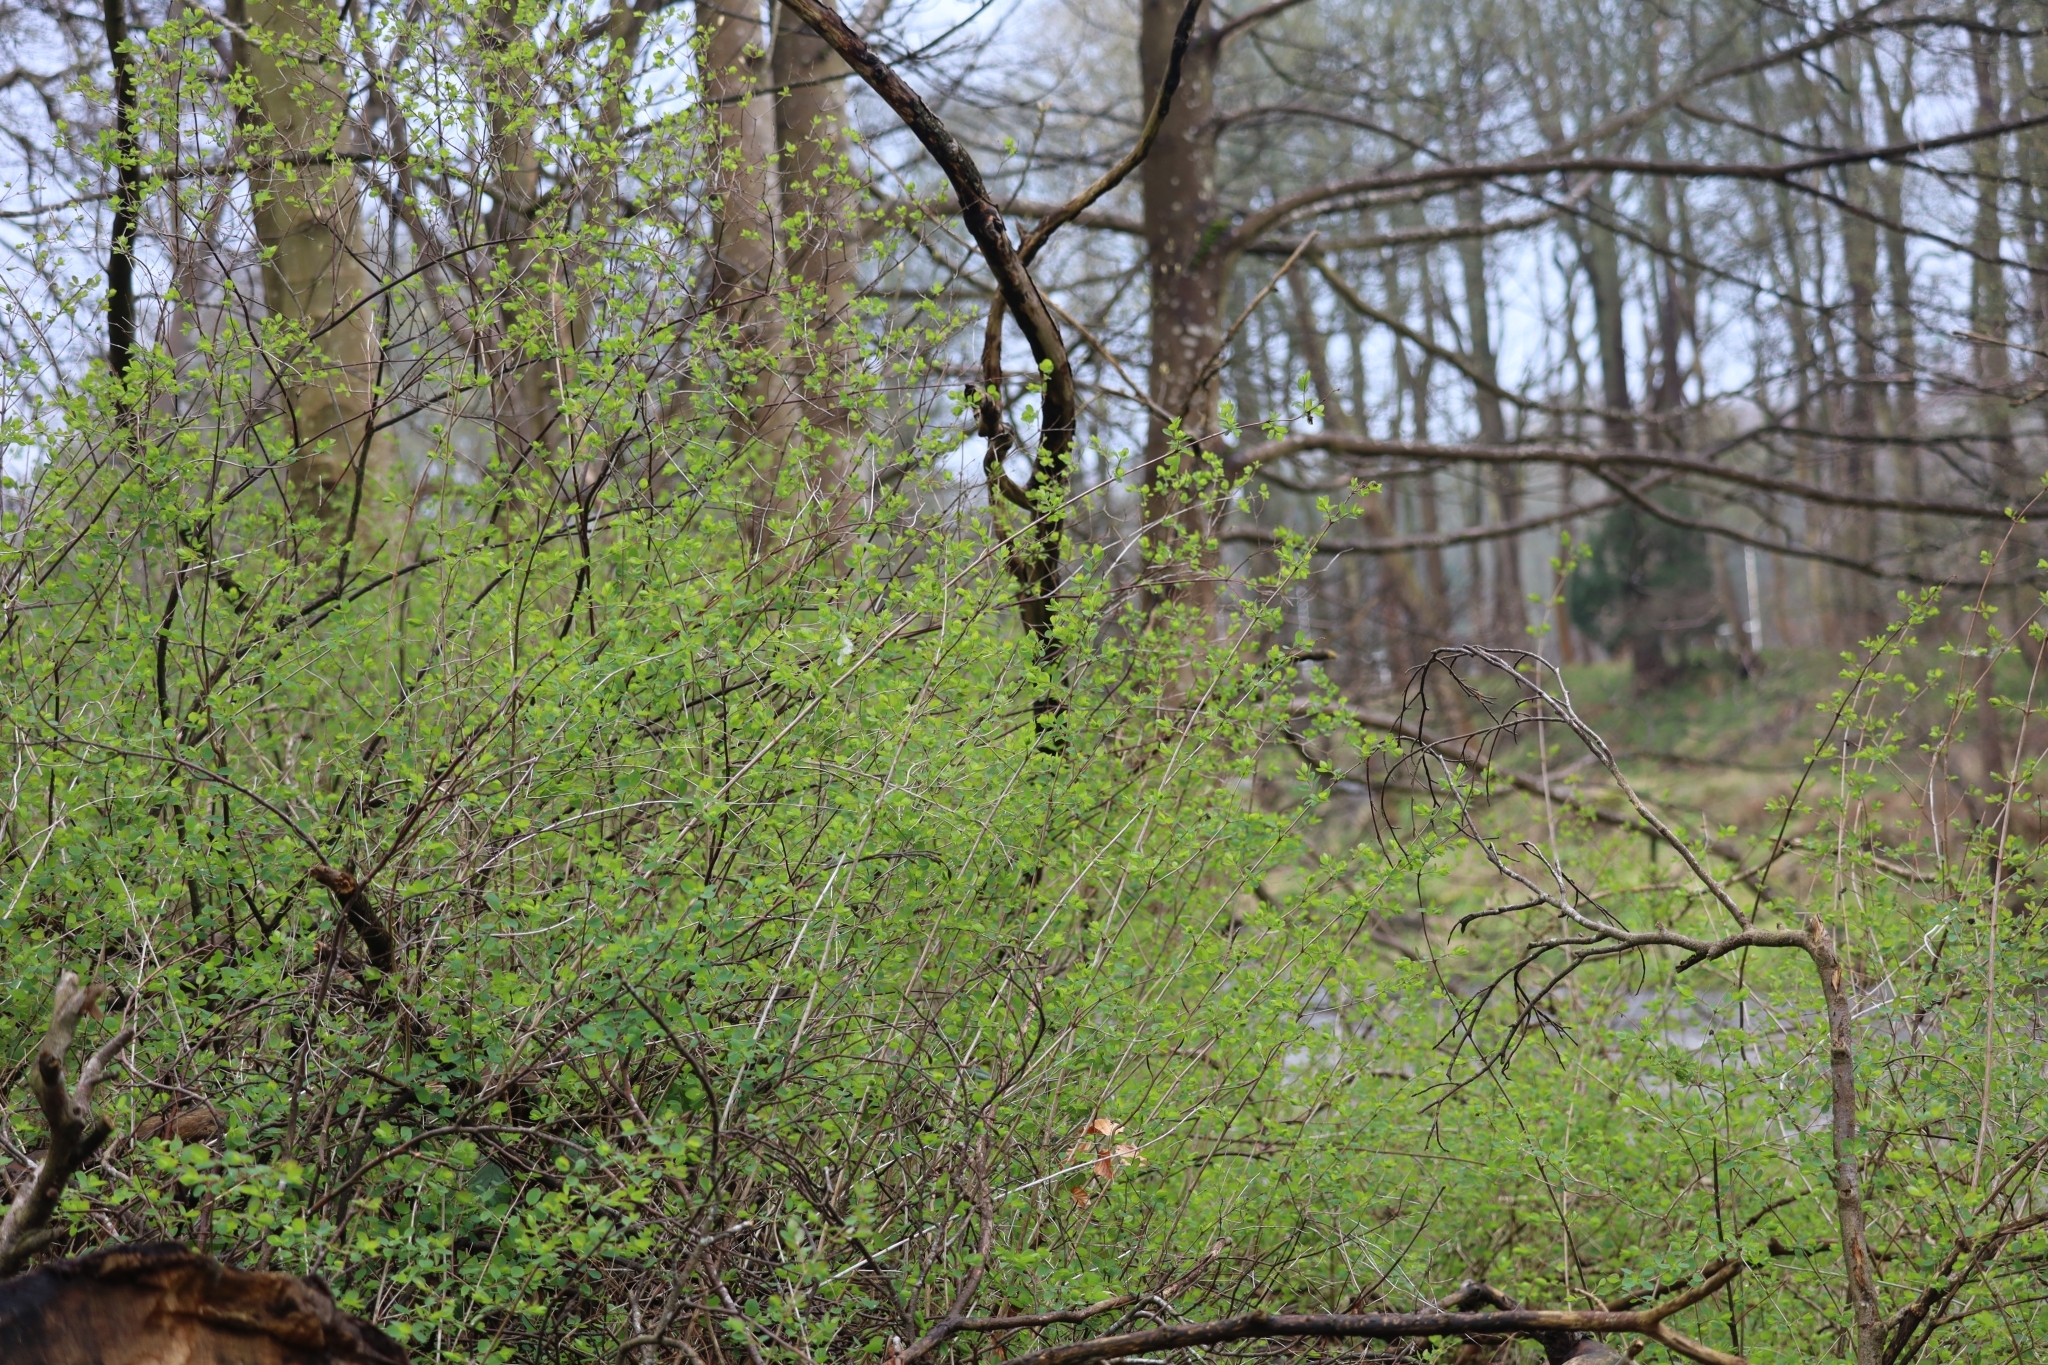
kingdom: Plantae
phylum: Tracheophyta
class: Magnoliopsida
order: Dipsacales
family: Caprifoliaceae
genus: Symphoricarpos
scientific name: Symphoricarpos albus
